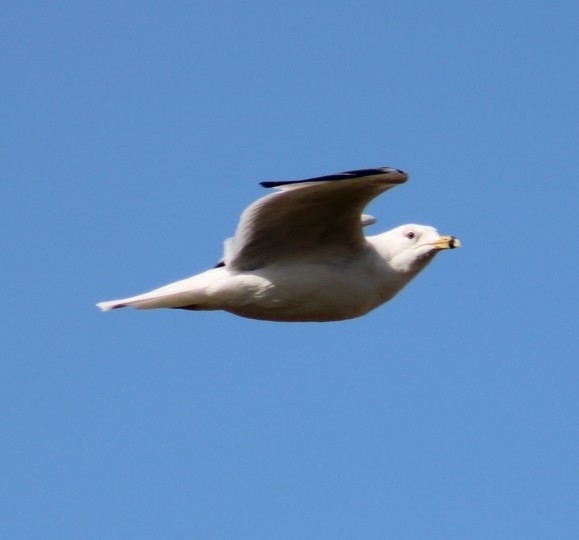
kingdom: Animalia
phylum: Chordata
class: Aves
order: Charadriiformes
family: Laridae
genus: Larus
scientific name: Larus delawarensis
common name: Ring-billed gull
